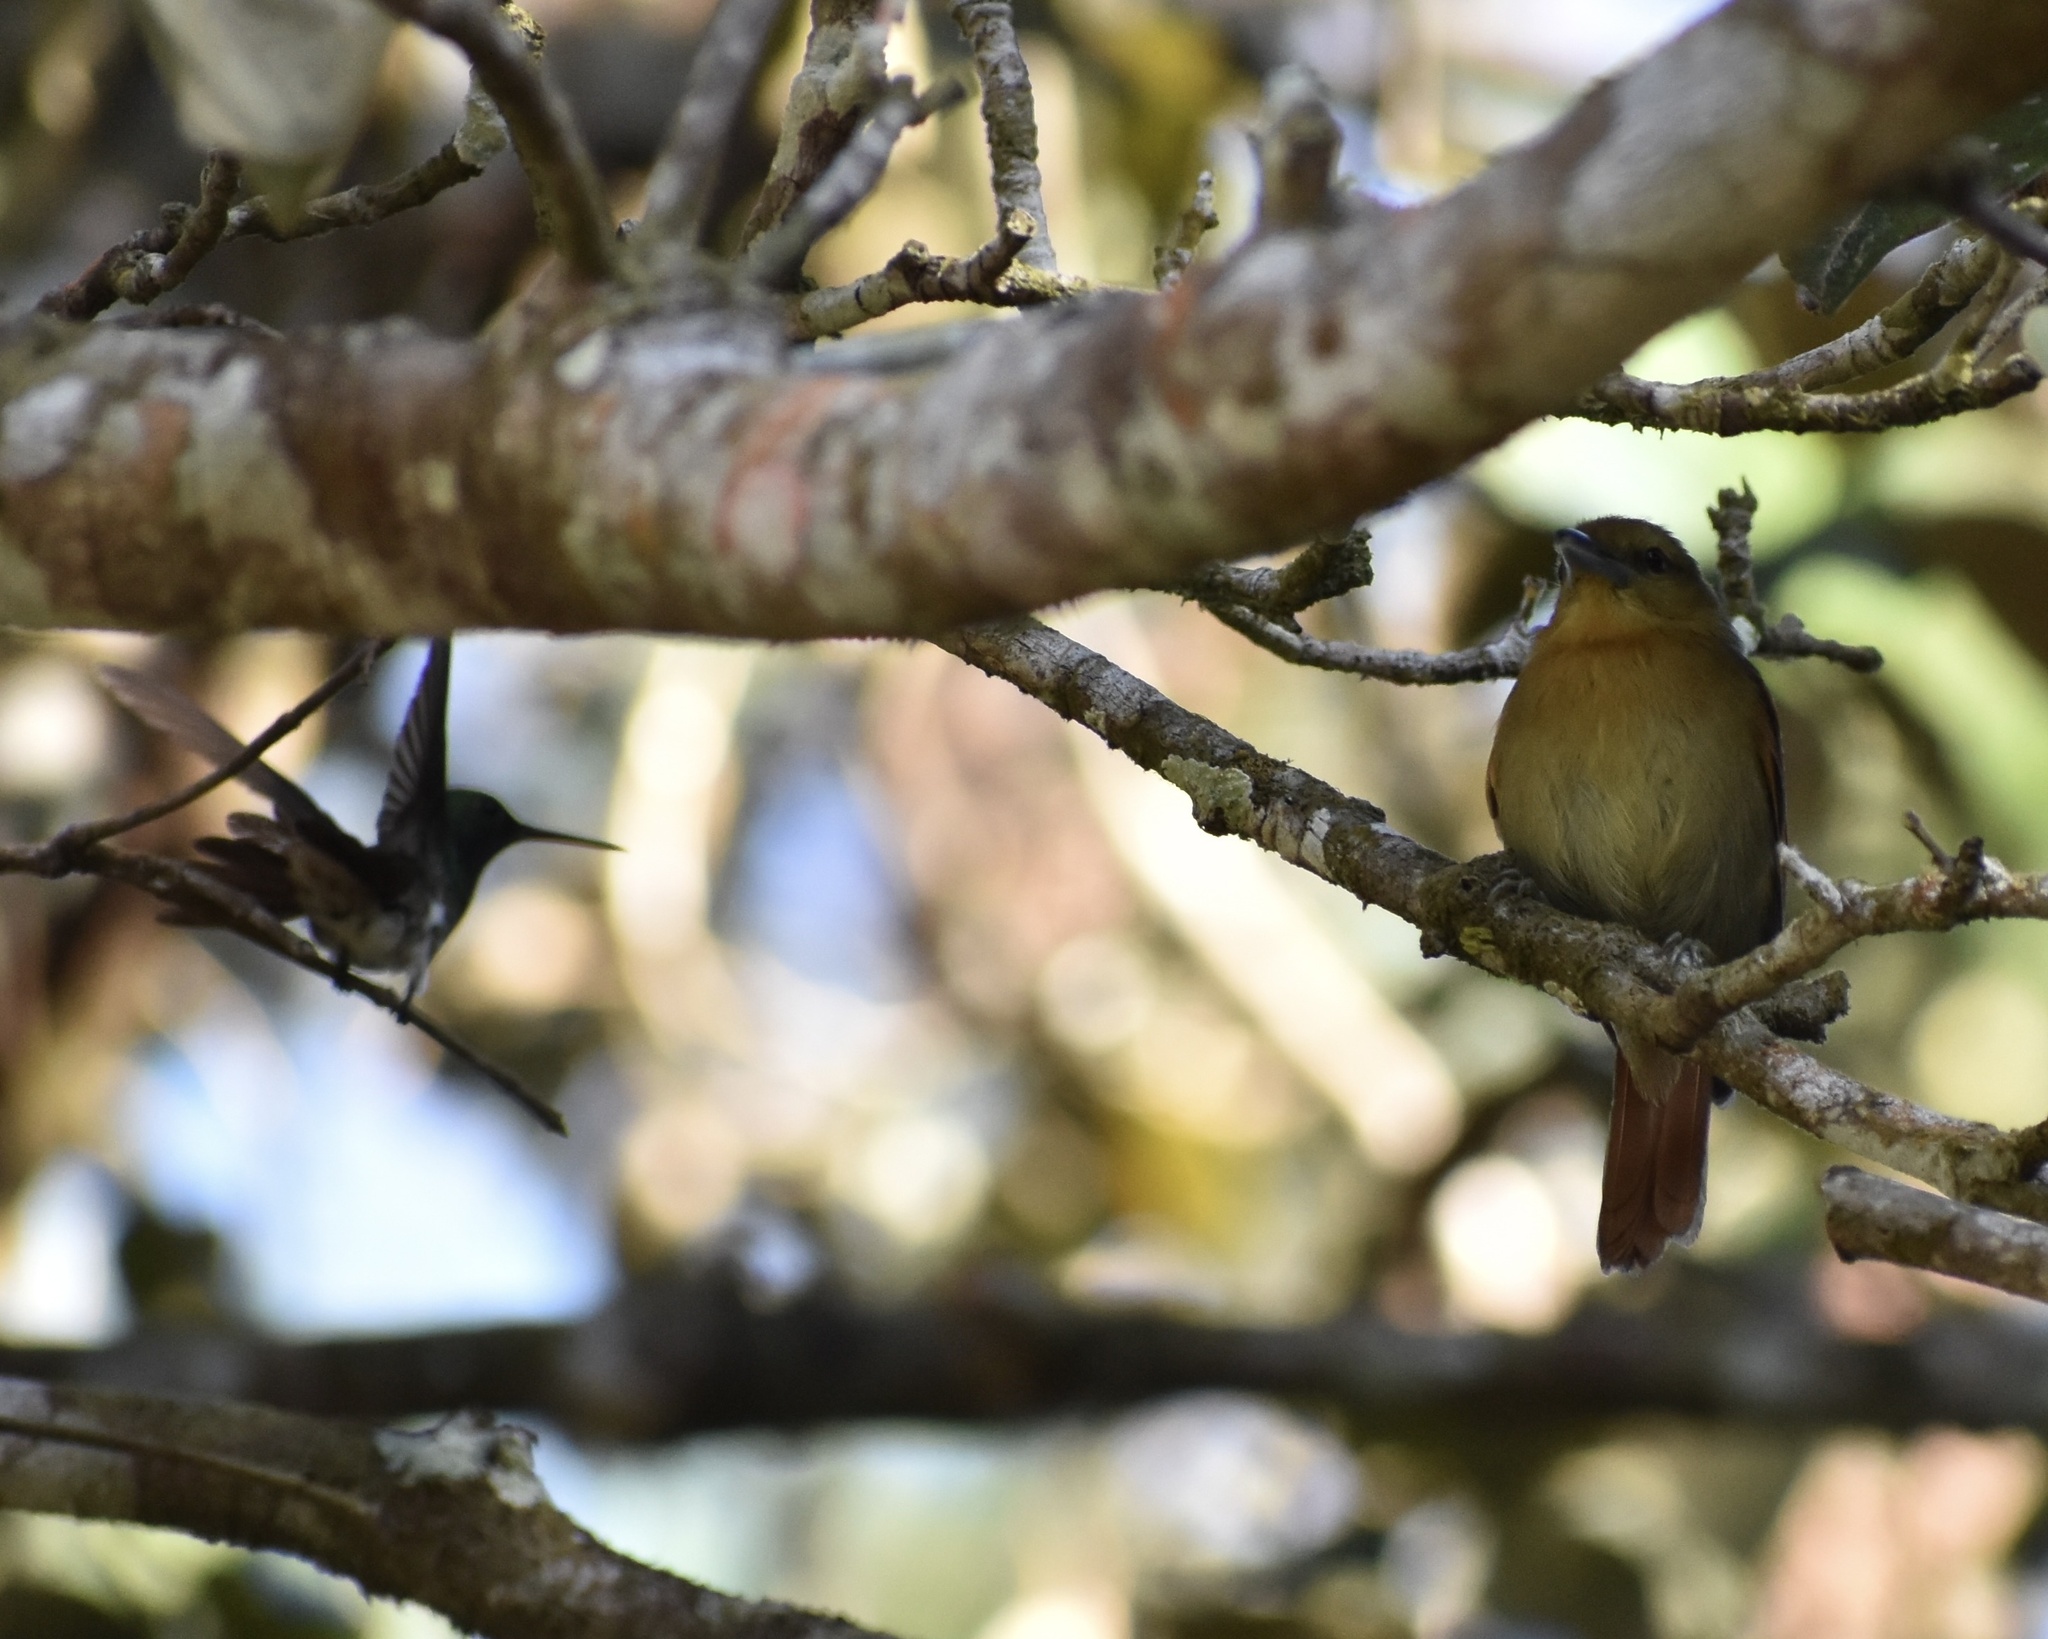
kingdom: Animalia
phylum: Chordata
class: Aves
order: Passeriformes
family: Thamnophilidae
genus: Thamnistes
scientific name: Thamnistes anabatinus
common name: Russet antshrike
